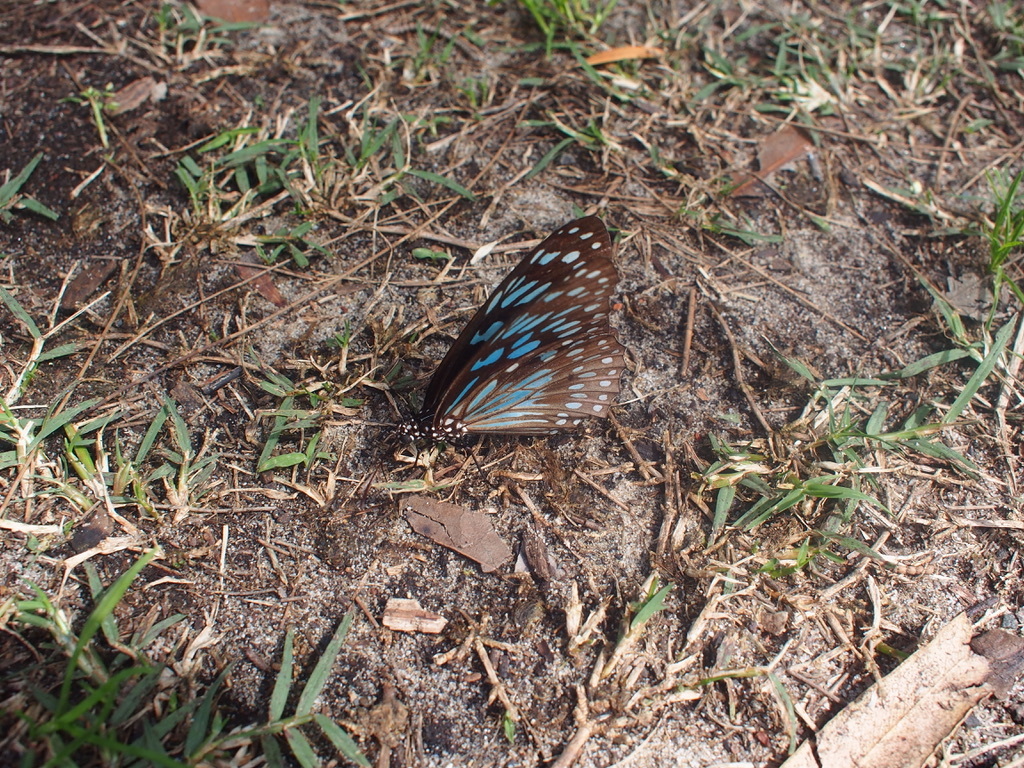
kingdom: Animalia
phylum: Arthropoda
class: Insecta
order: Lepidoptera
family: Nymphalidae
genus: Tirumala
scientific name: Tirumala hamata
